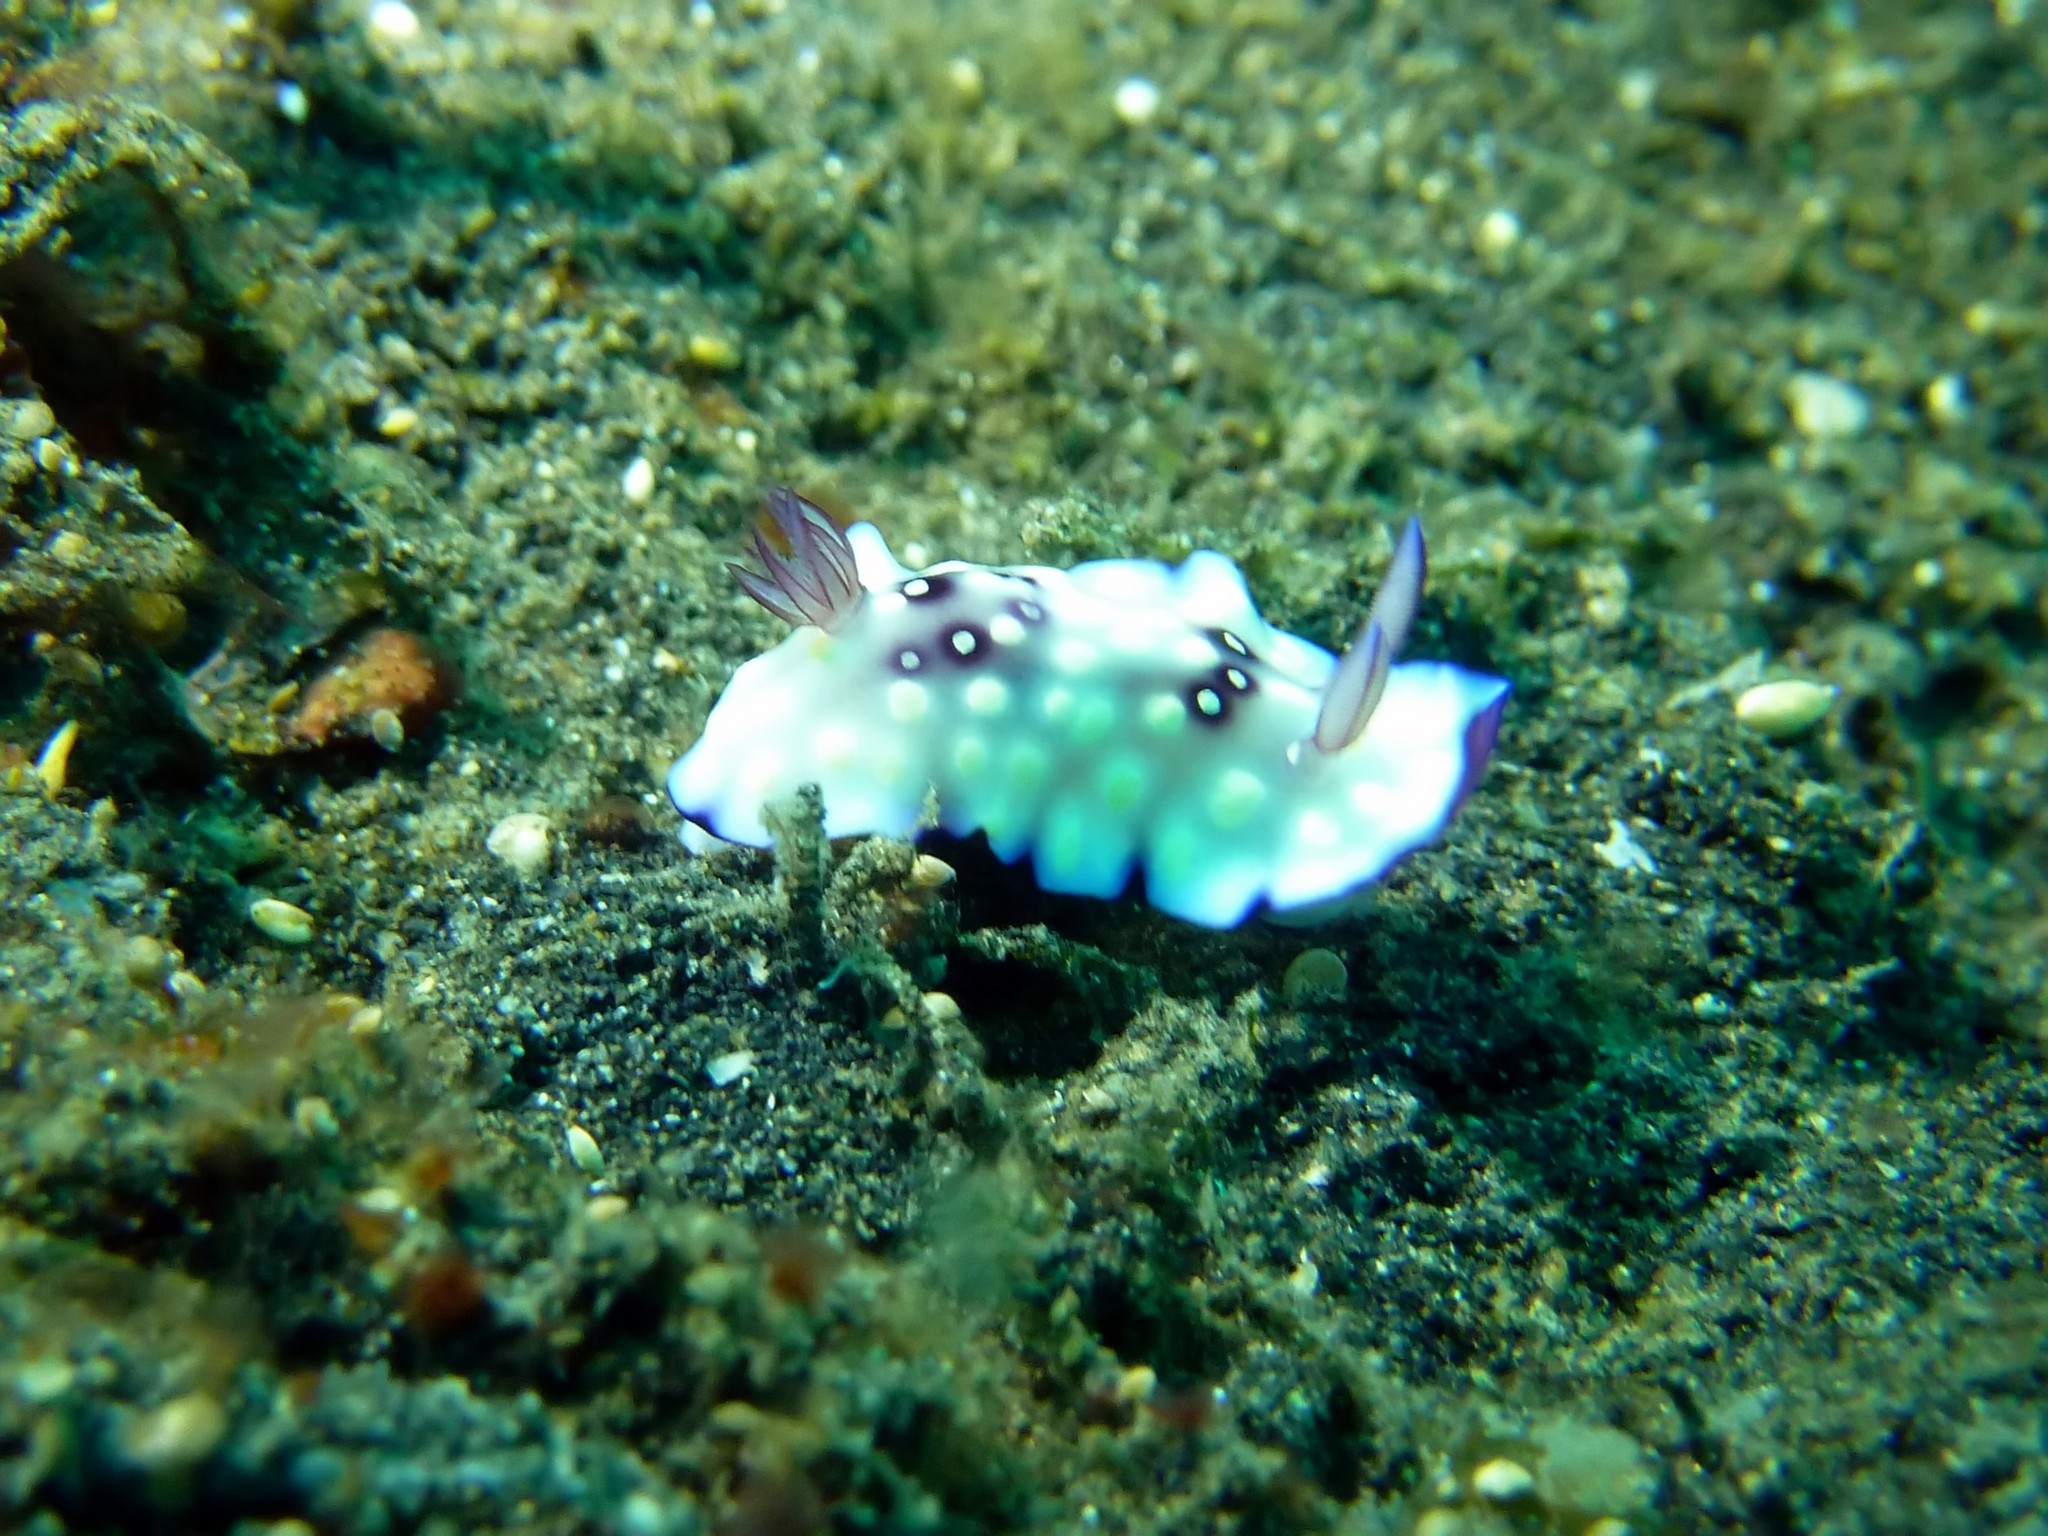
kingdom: Animalia
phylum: Mollusca
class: Gastropoda
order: Nudibranchia
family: Chromodorididae
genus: Goniobranchus
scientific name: Goniobranchus hintuanensis
